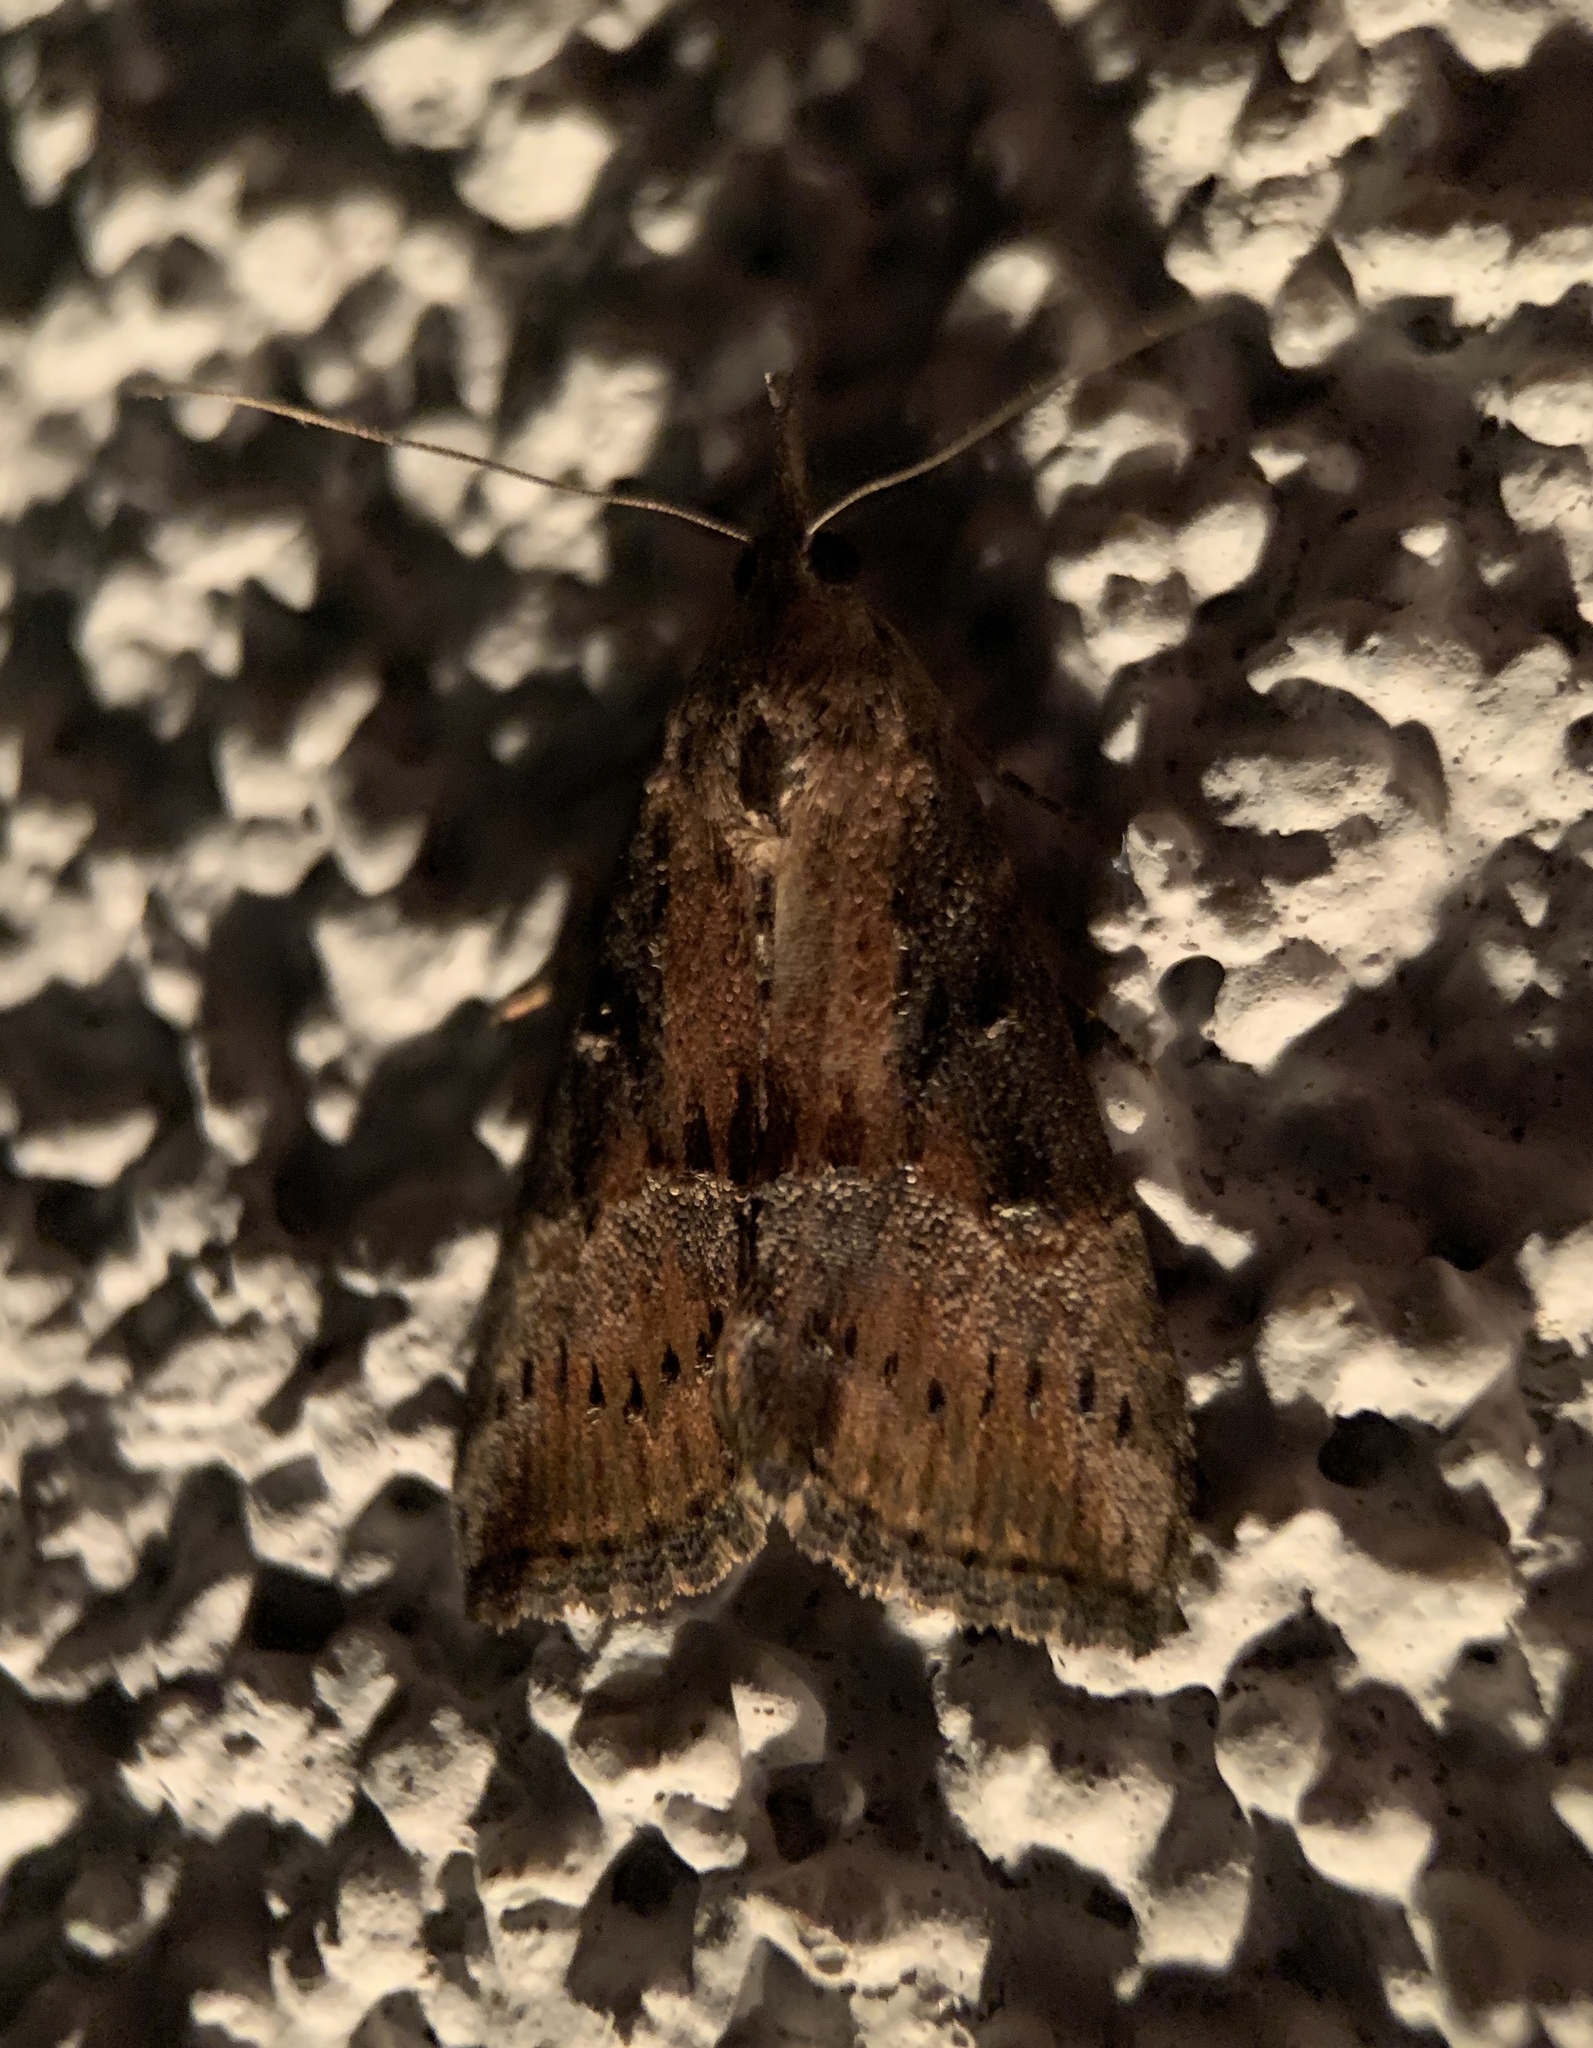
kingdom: Animalia
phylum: Arthropoda
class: Insecta
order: Lepidoptera
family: Erebidae
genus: Hypena
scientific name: Hypena scabra
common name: Green cloverworm
